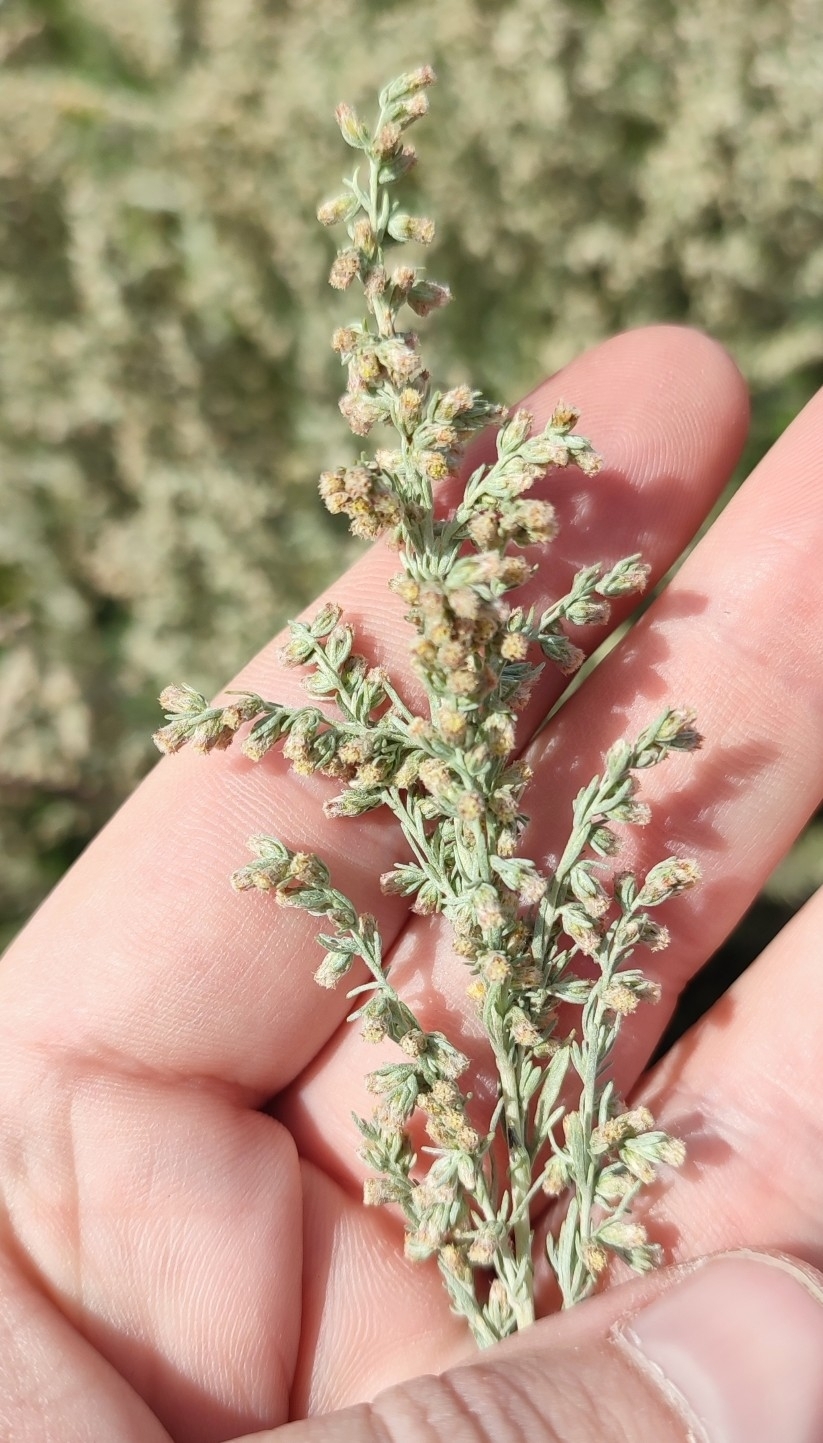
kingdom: Plantae
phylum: Tracheophyta
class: Magnoliopsida
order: Asterales
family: Asteraceae
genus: Artemisia
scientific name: Artemisia austriaca
